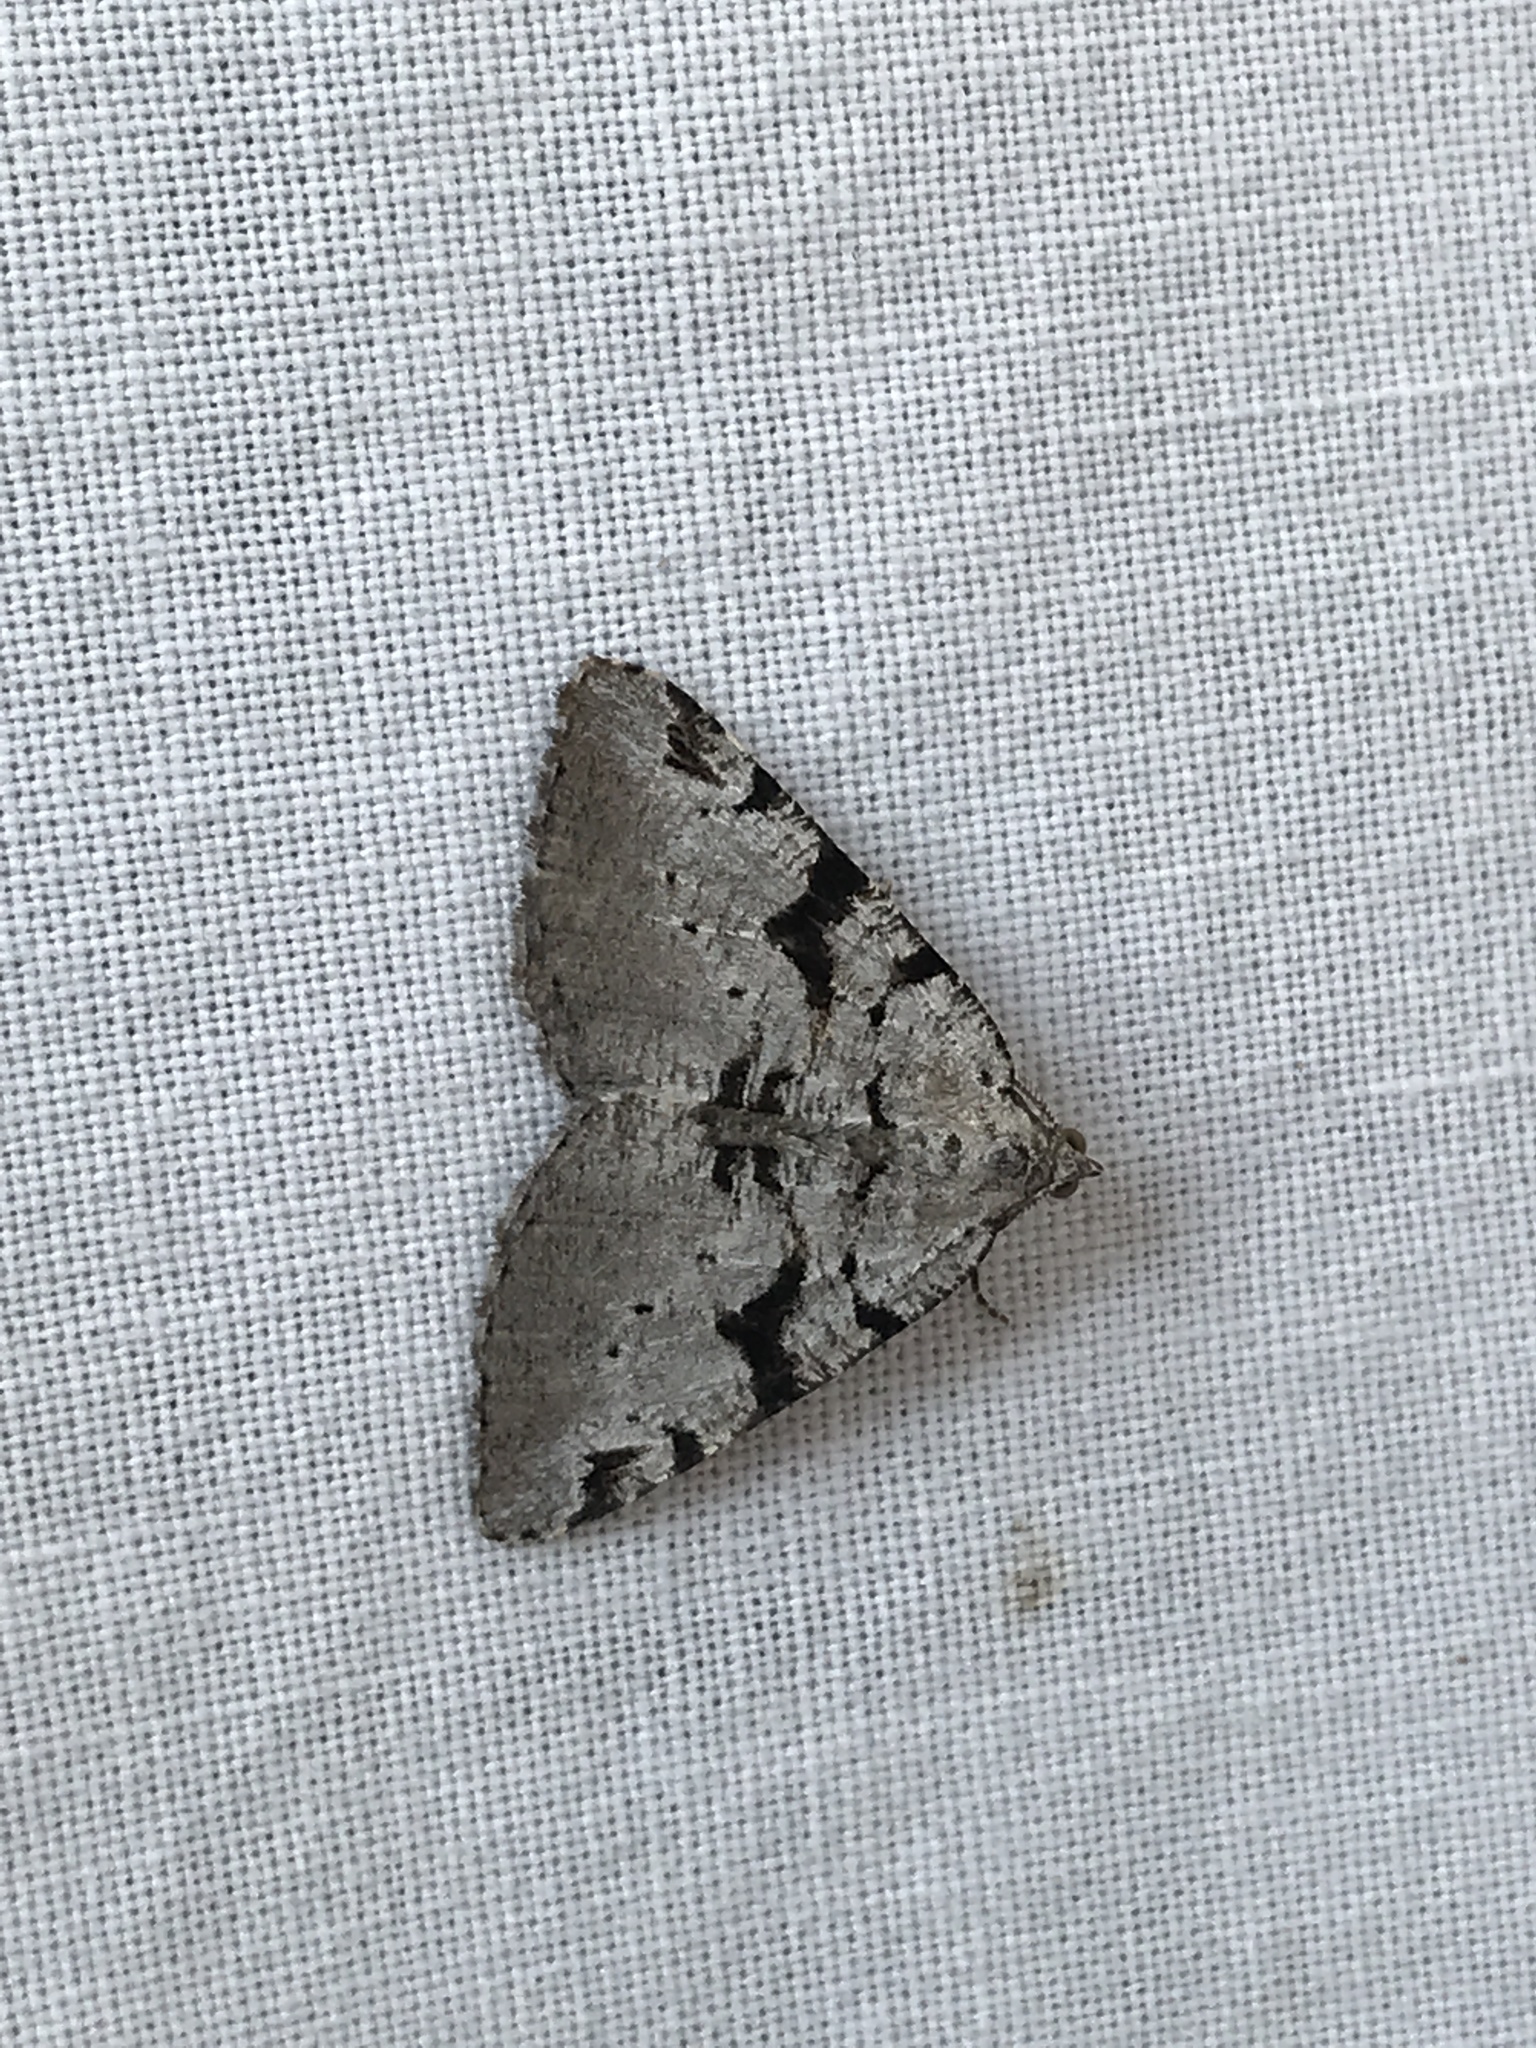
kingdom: Animalia
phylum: Arthropoda
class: Insecta
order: Lepidoptera
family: Geometridae
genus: Macaria
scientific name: Macaria bitactata
